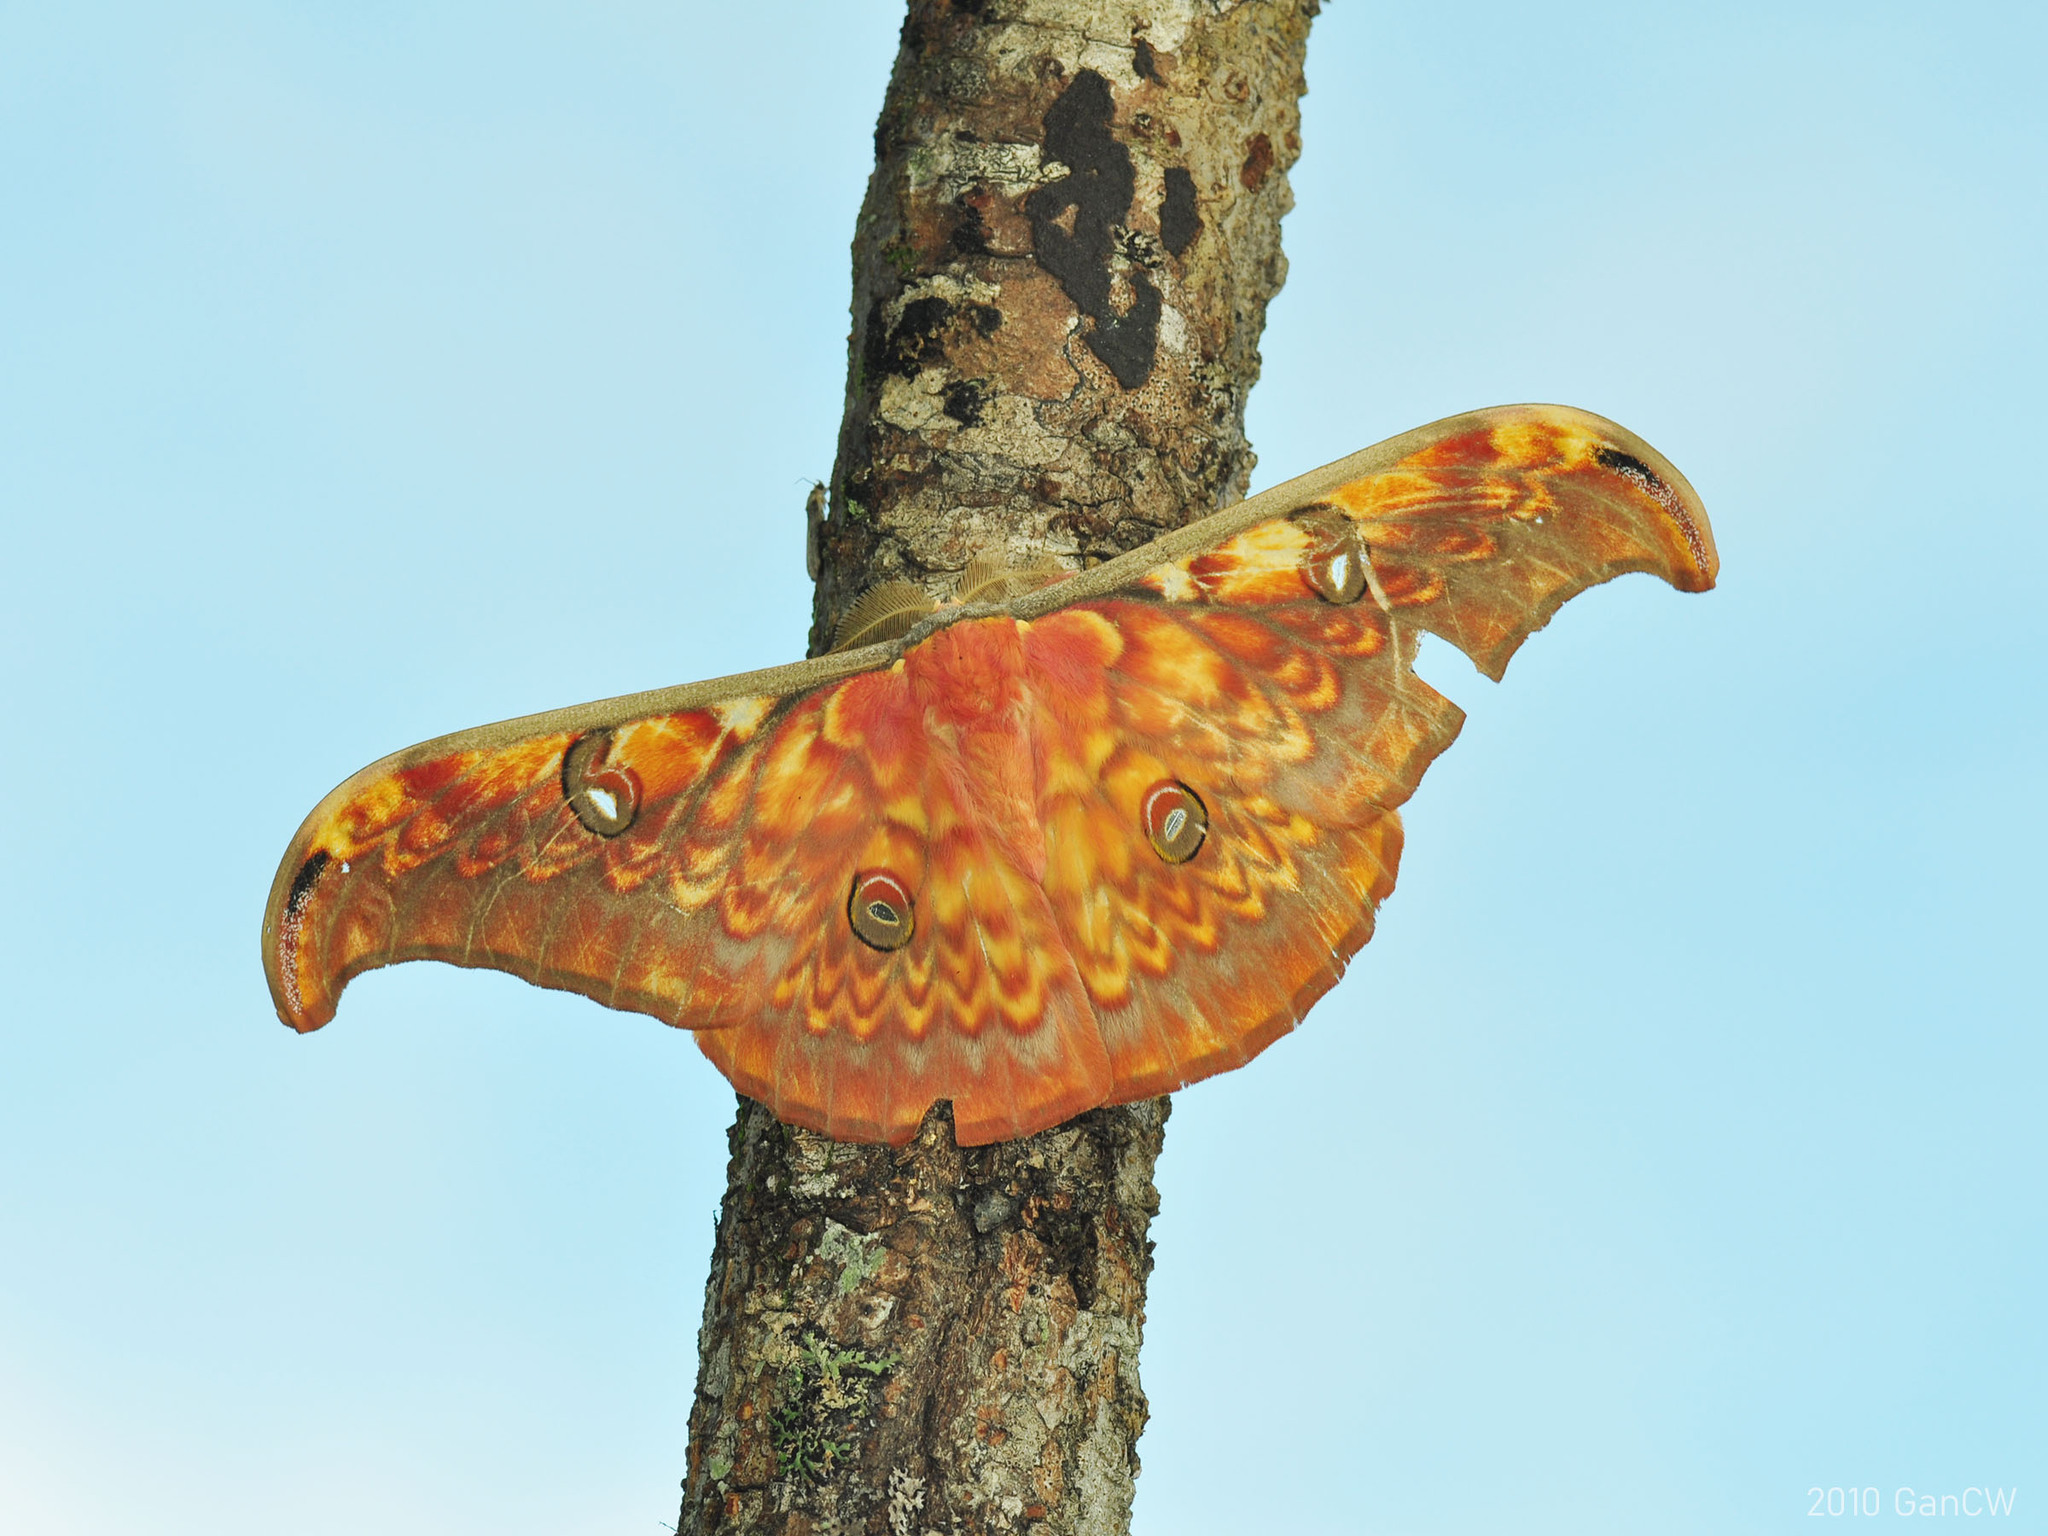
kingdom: Animalia
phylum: Arthropoda
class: Insecta
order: Lepidoptera
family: Saturniidae
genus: Antheraea
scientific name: Antheraea larissa
